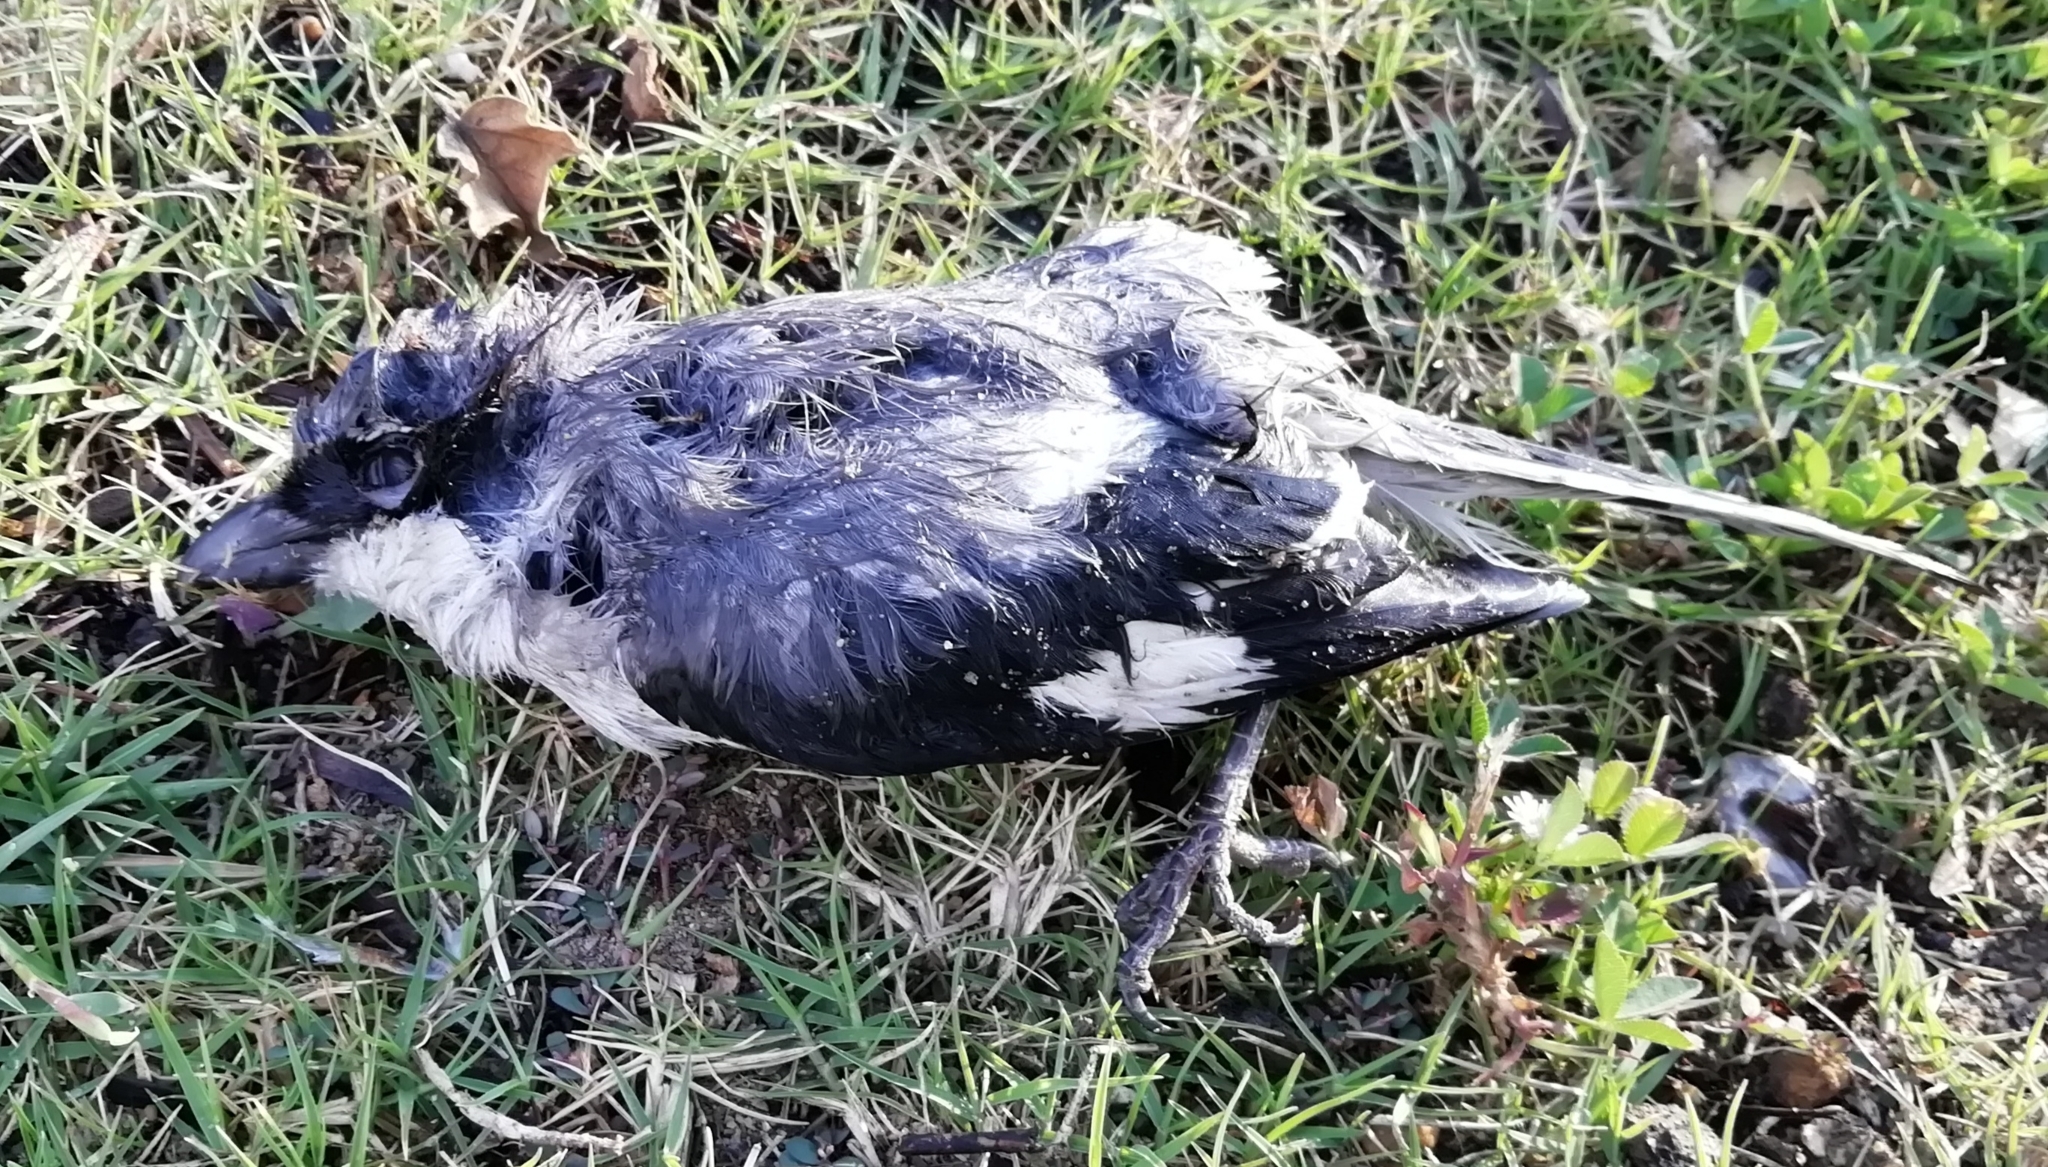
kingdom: Animalia
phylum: Chordata
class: Aves
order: Passeriformes
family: Laniidae
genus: Lanius
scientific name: Lanius excubitor
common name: Great grey shrike
